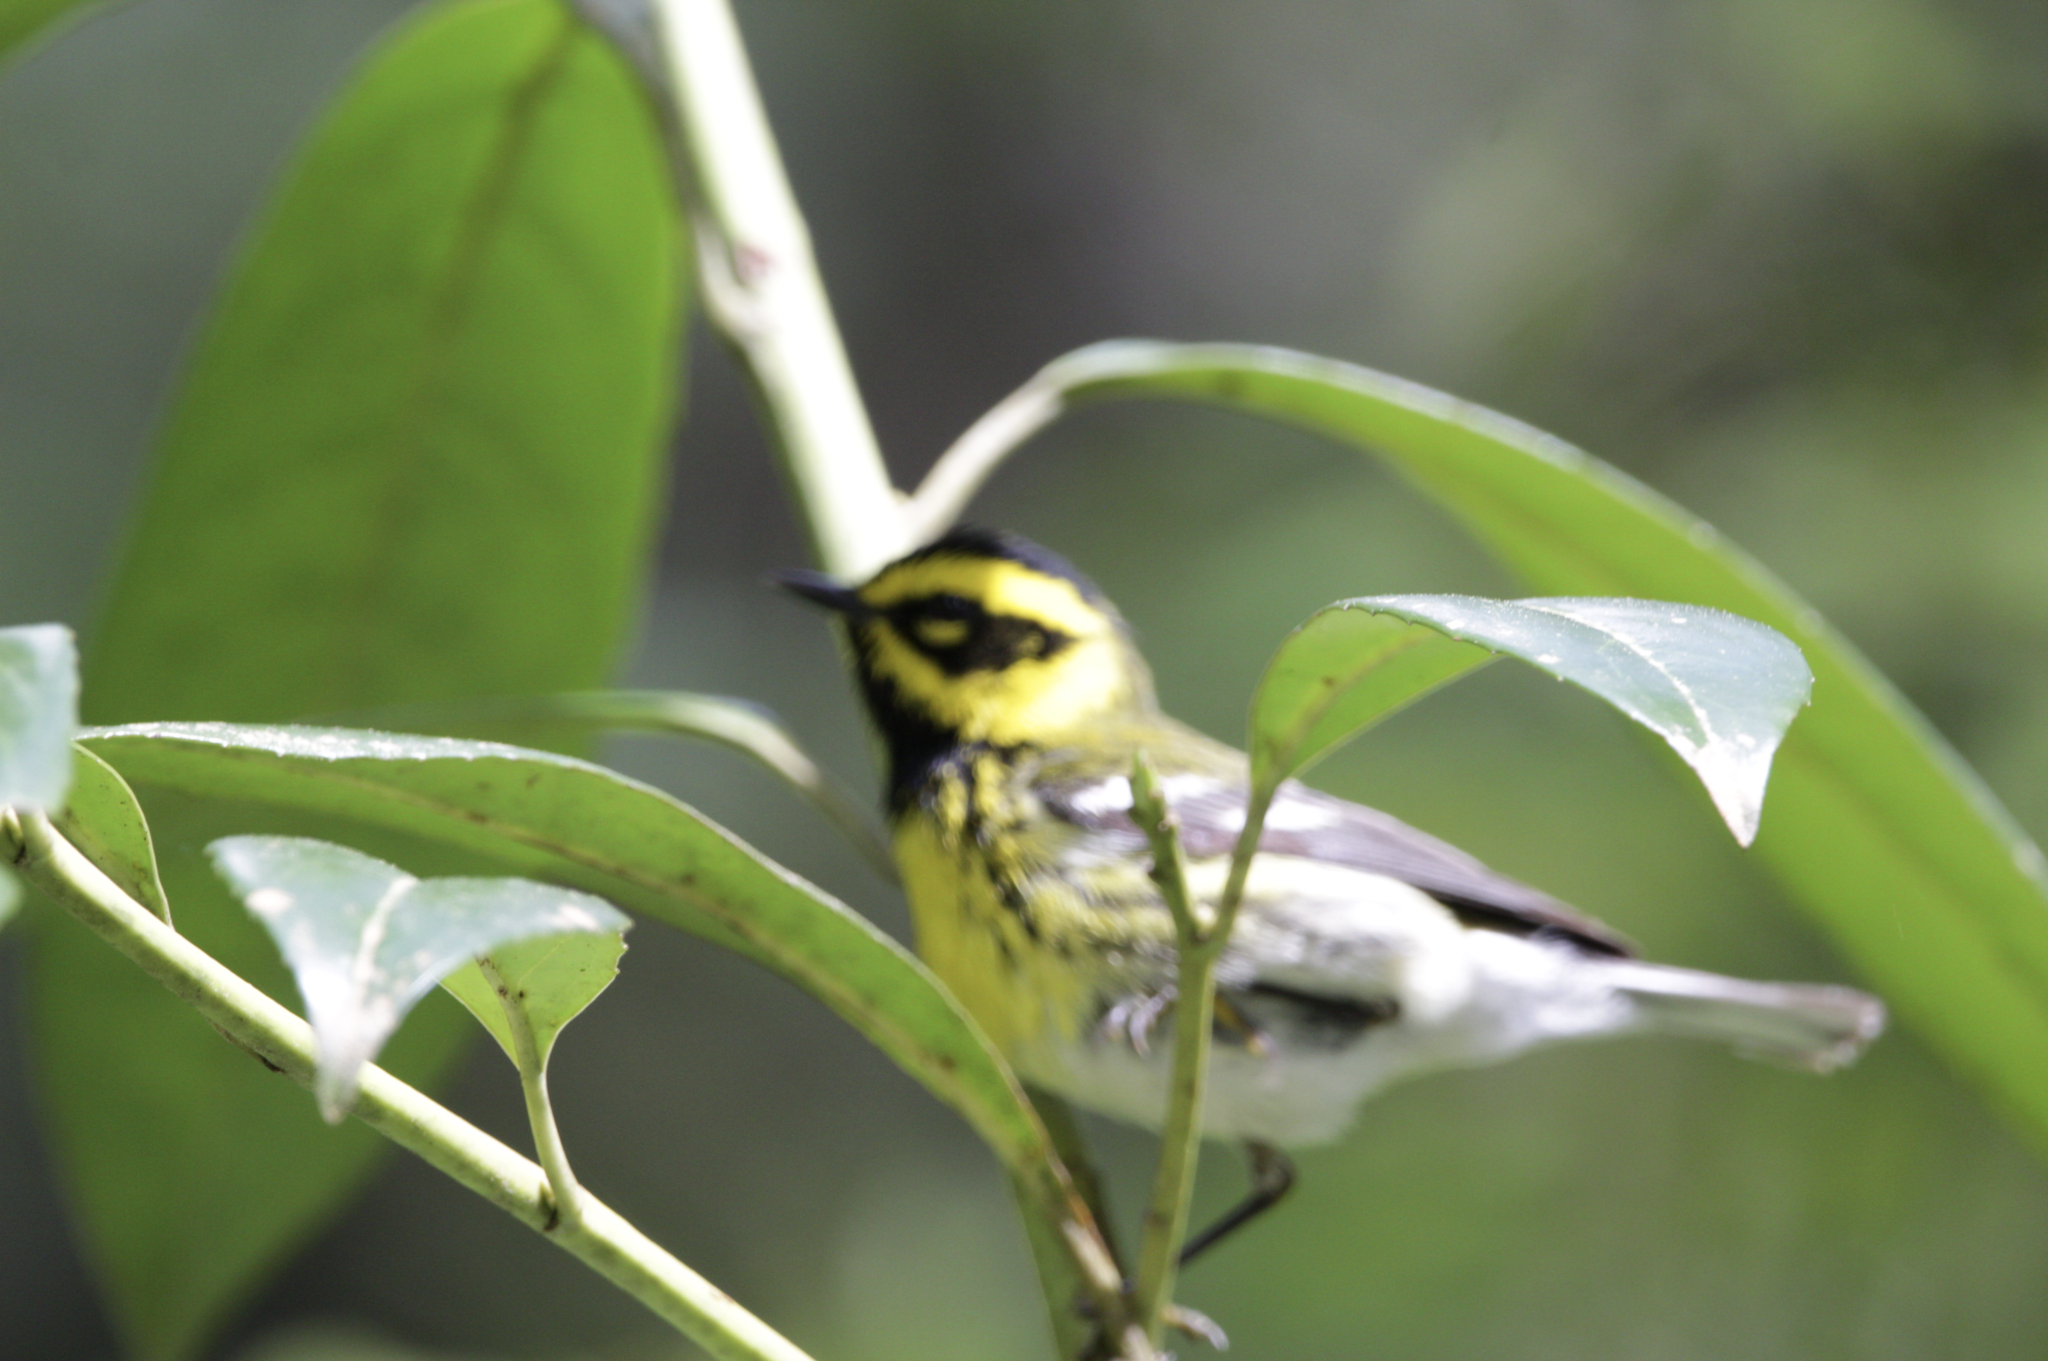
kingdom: Animalia
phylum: Chordata
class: Aves
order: Passeriformes
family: Parulidae
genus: Setophaga
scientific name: Setophaga townsendi
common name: Townsend's warbler
